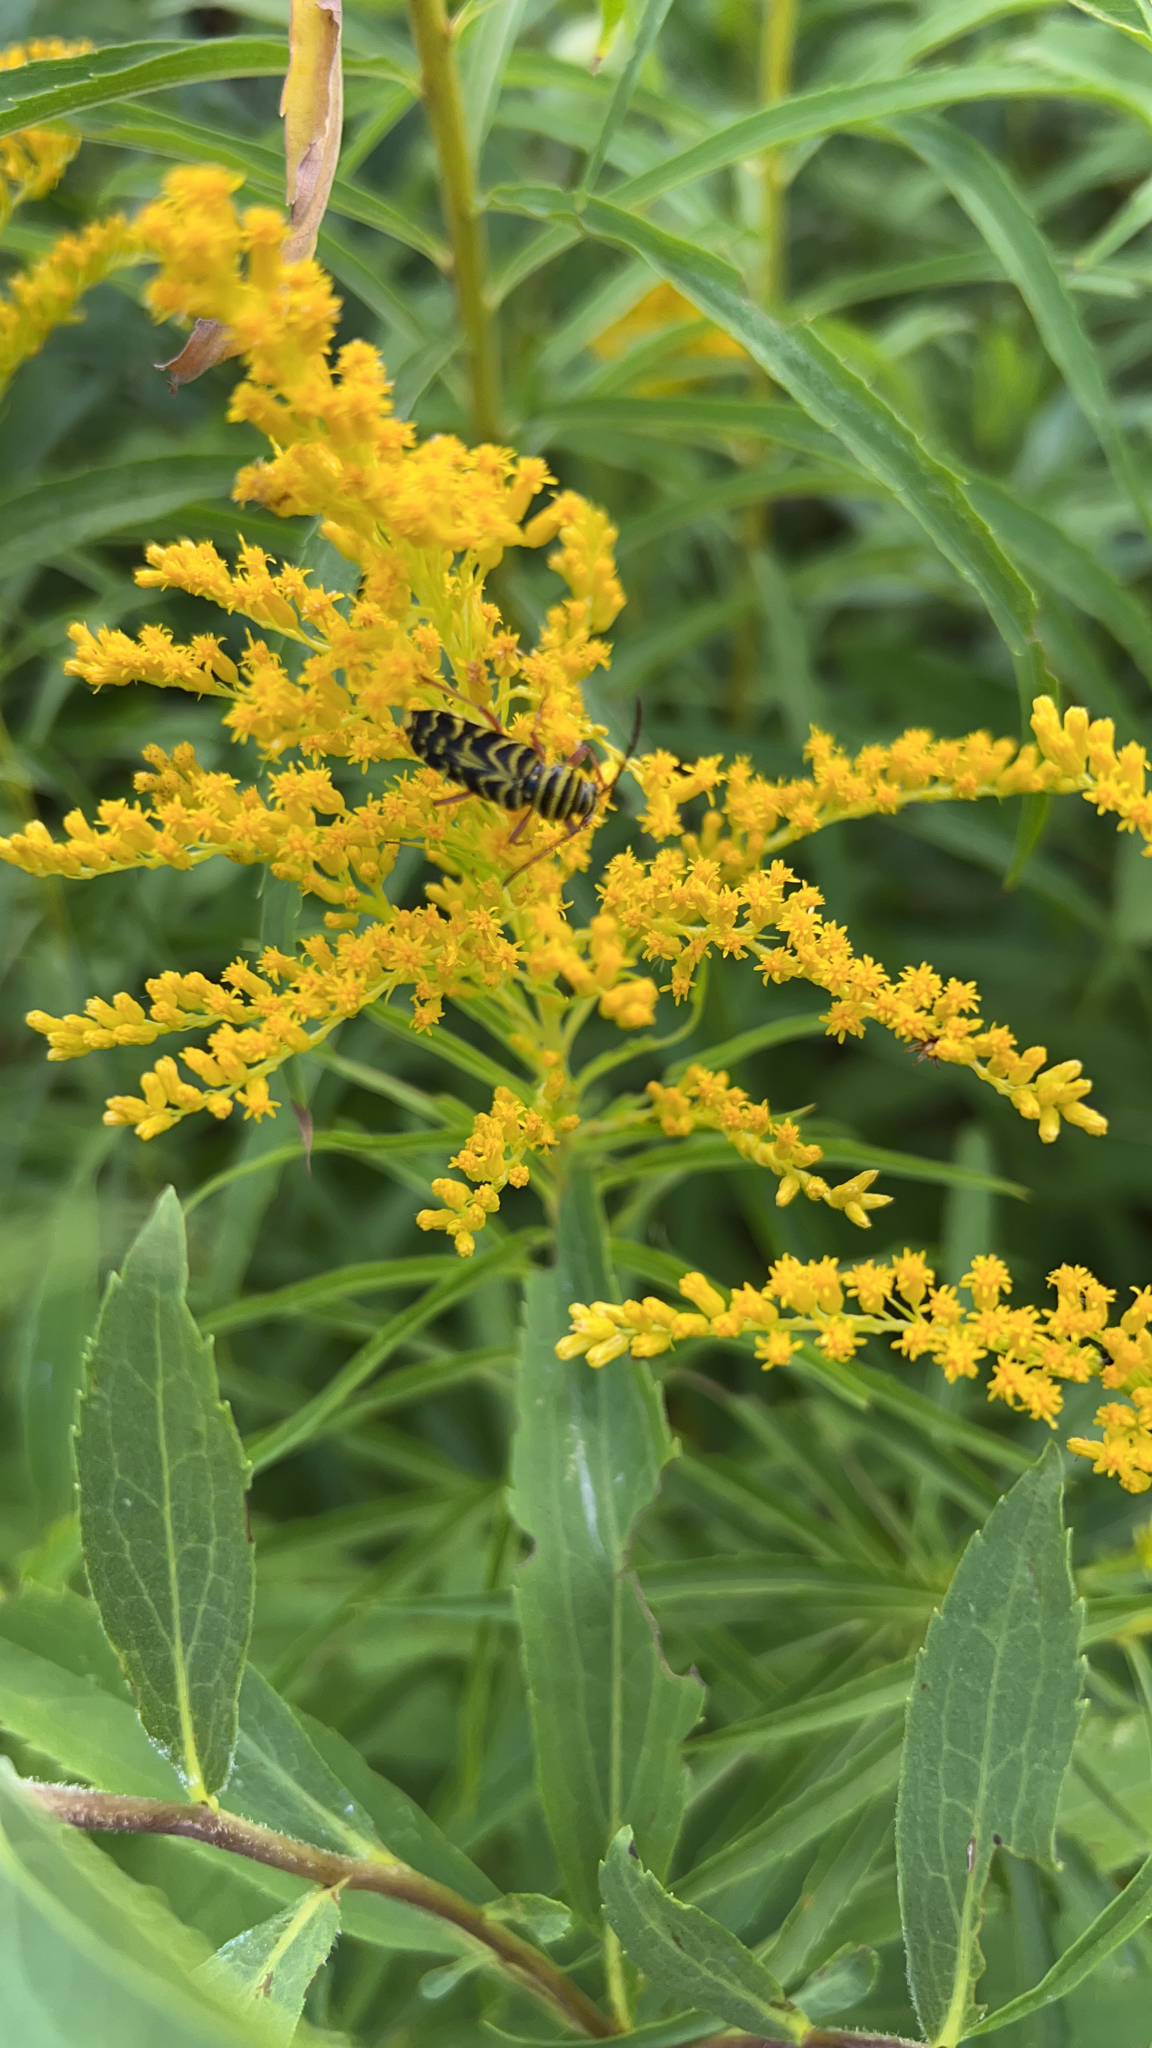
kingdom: Animalia
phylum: Arthropoda
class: Insecta
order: Coleoptera
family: Cerambycidae
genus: Megacyllene
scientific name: Megacyllene robiniae
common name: Locust borer
